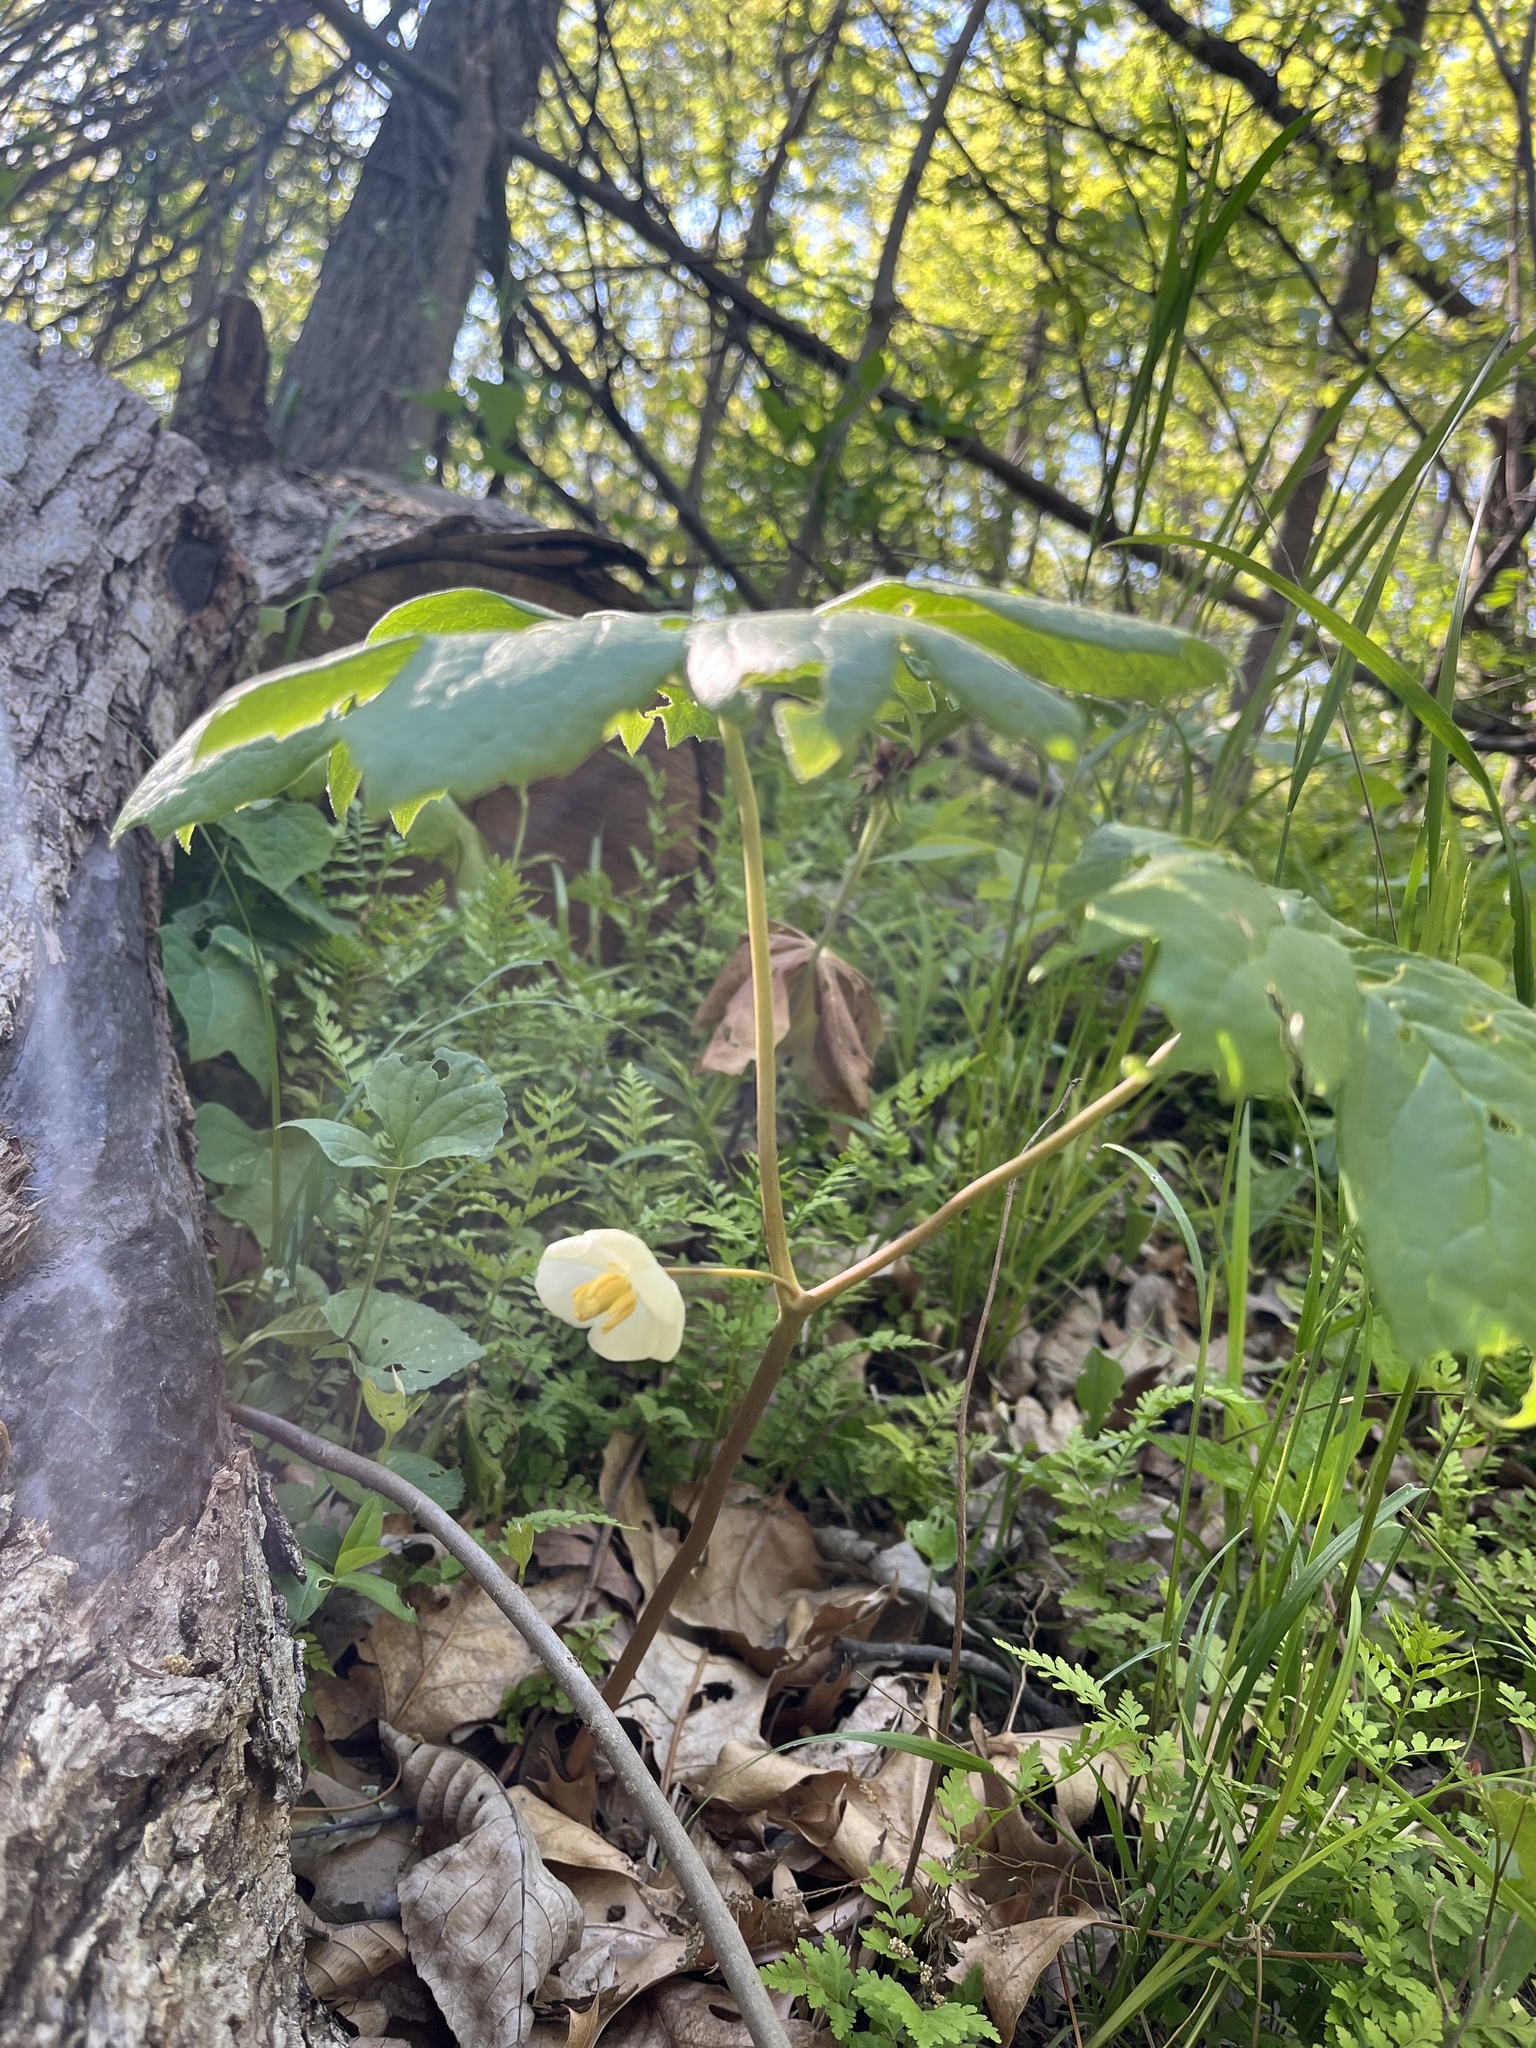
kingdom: Plantae
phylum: Tracheophyta
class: Magnoliopsida
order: Ranunculales
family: Berberidaceae
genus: Podophyllum
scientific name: Podophyllum peltatum
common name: Wild mandrake
